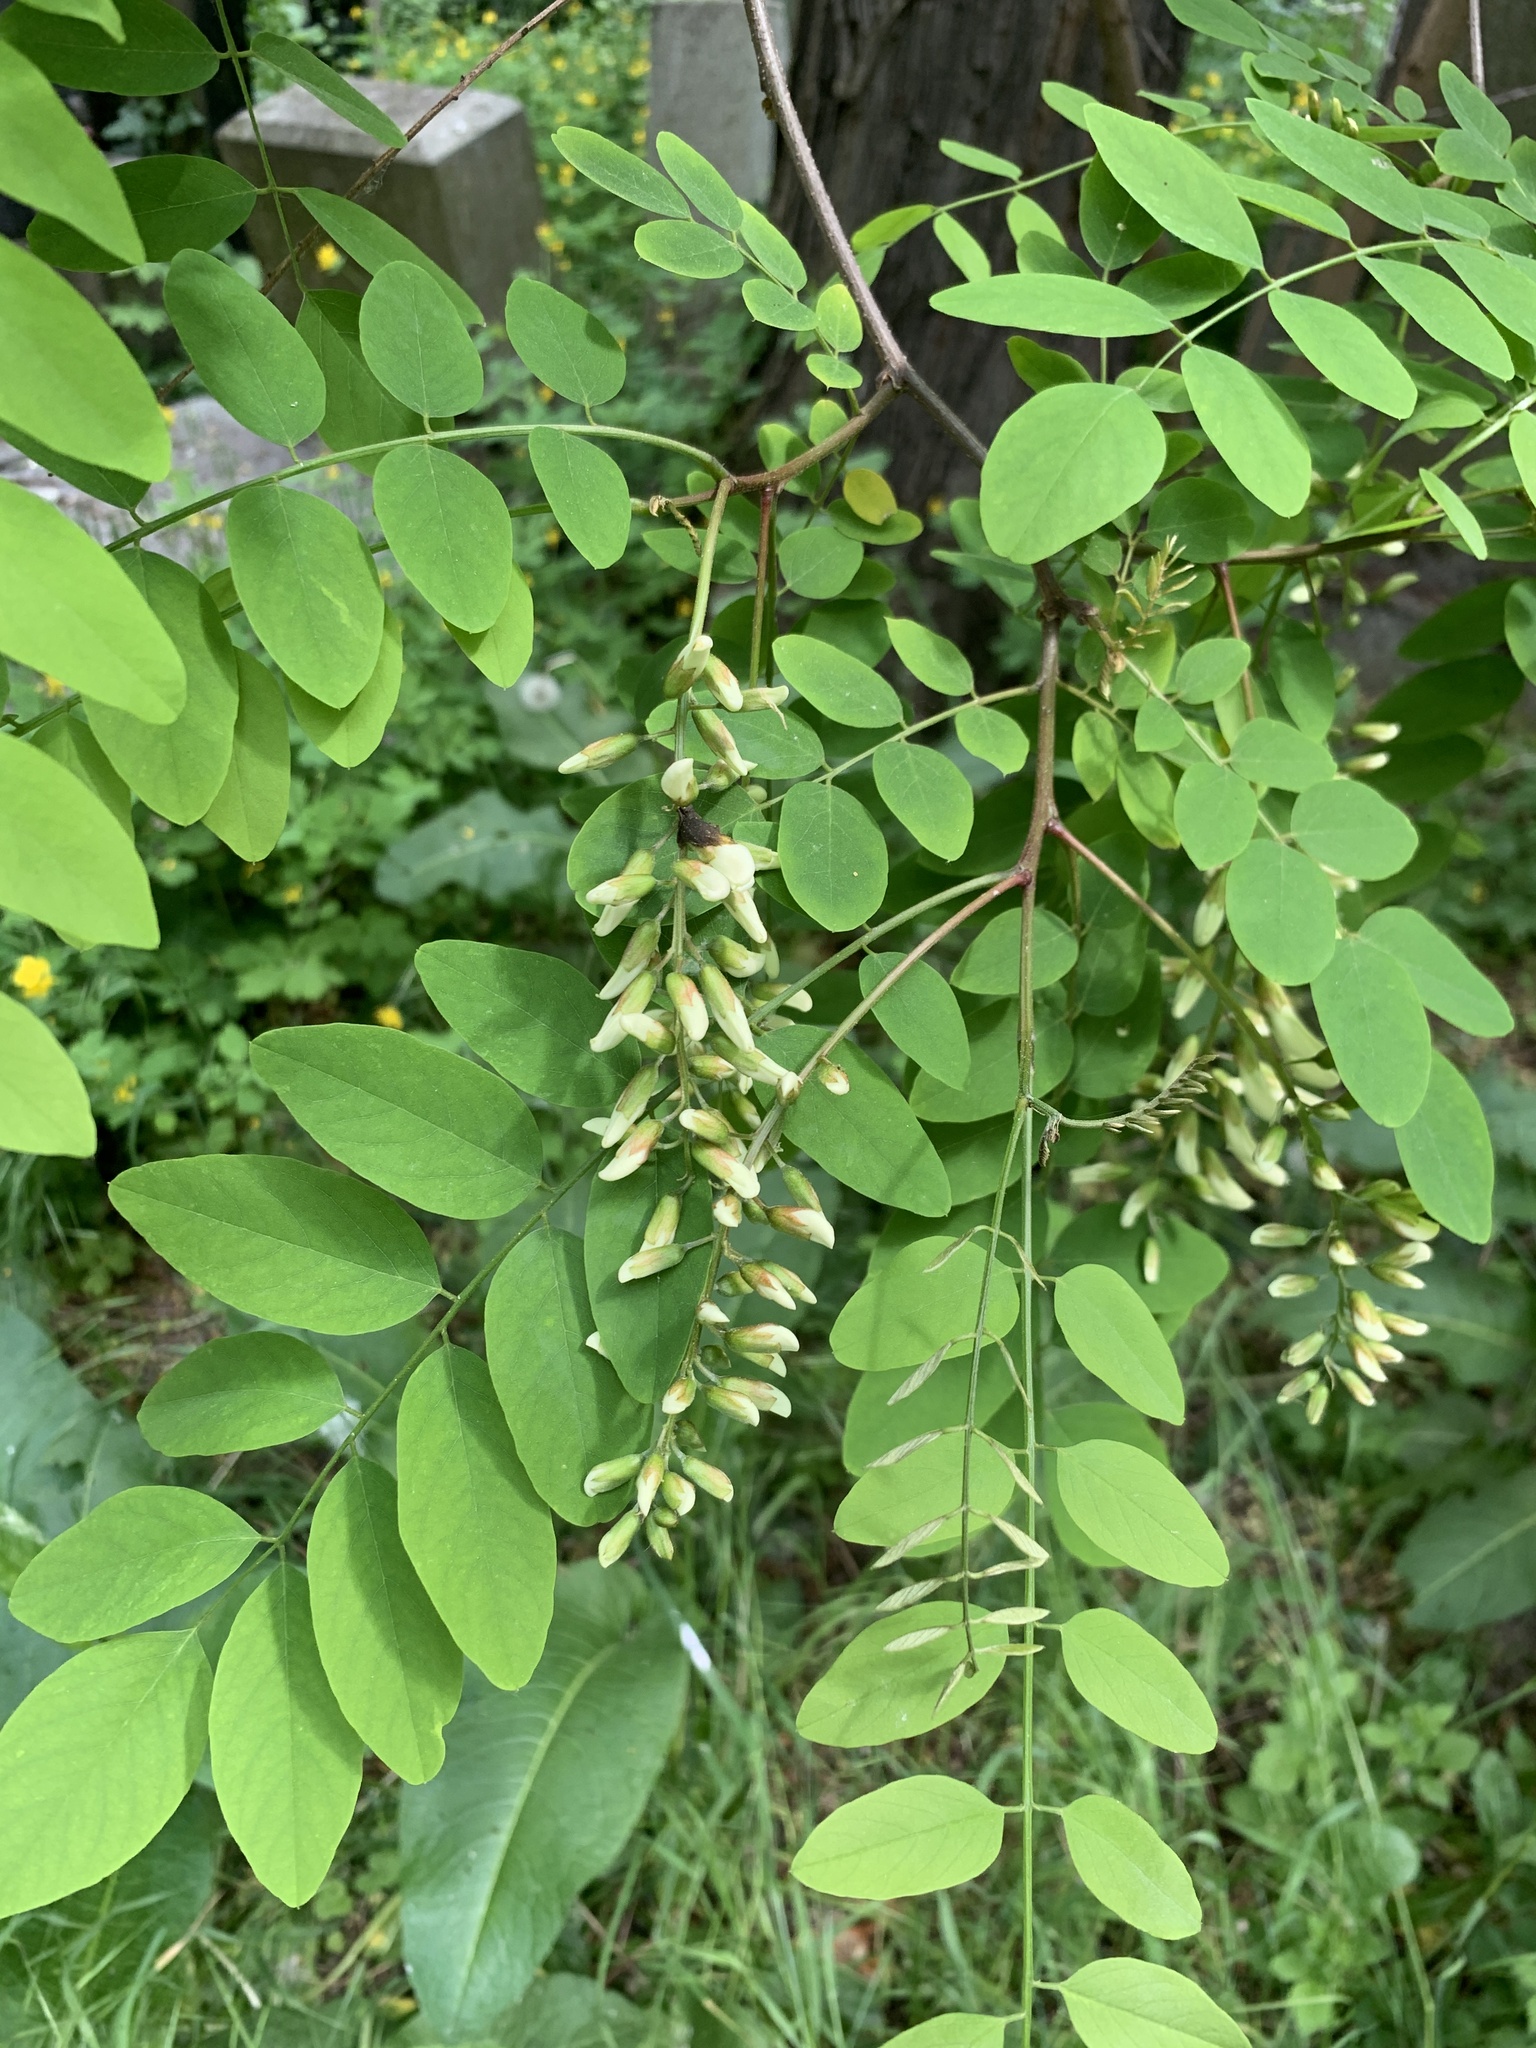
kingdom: Plantae
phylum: Tracheophyta
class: Magnoliopsida
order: Fabales
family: Fabaceae
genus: Robinia
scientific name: Robinia pseudoacacia
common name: Black locust
